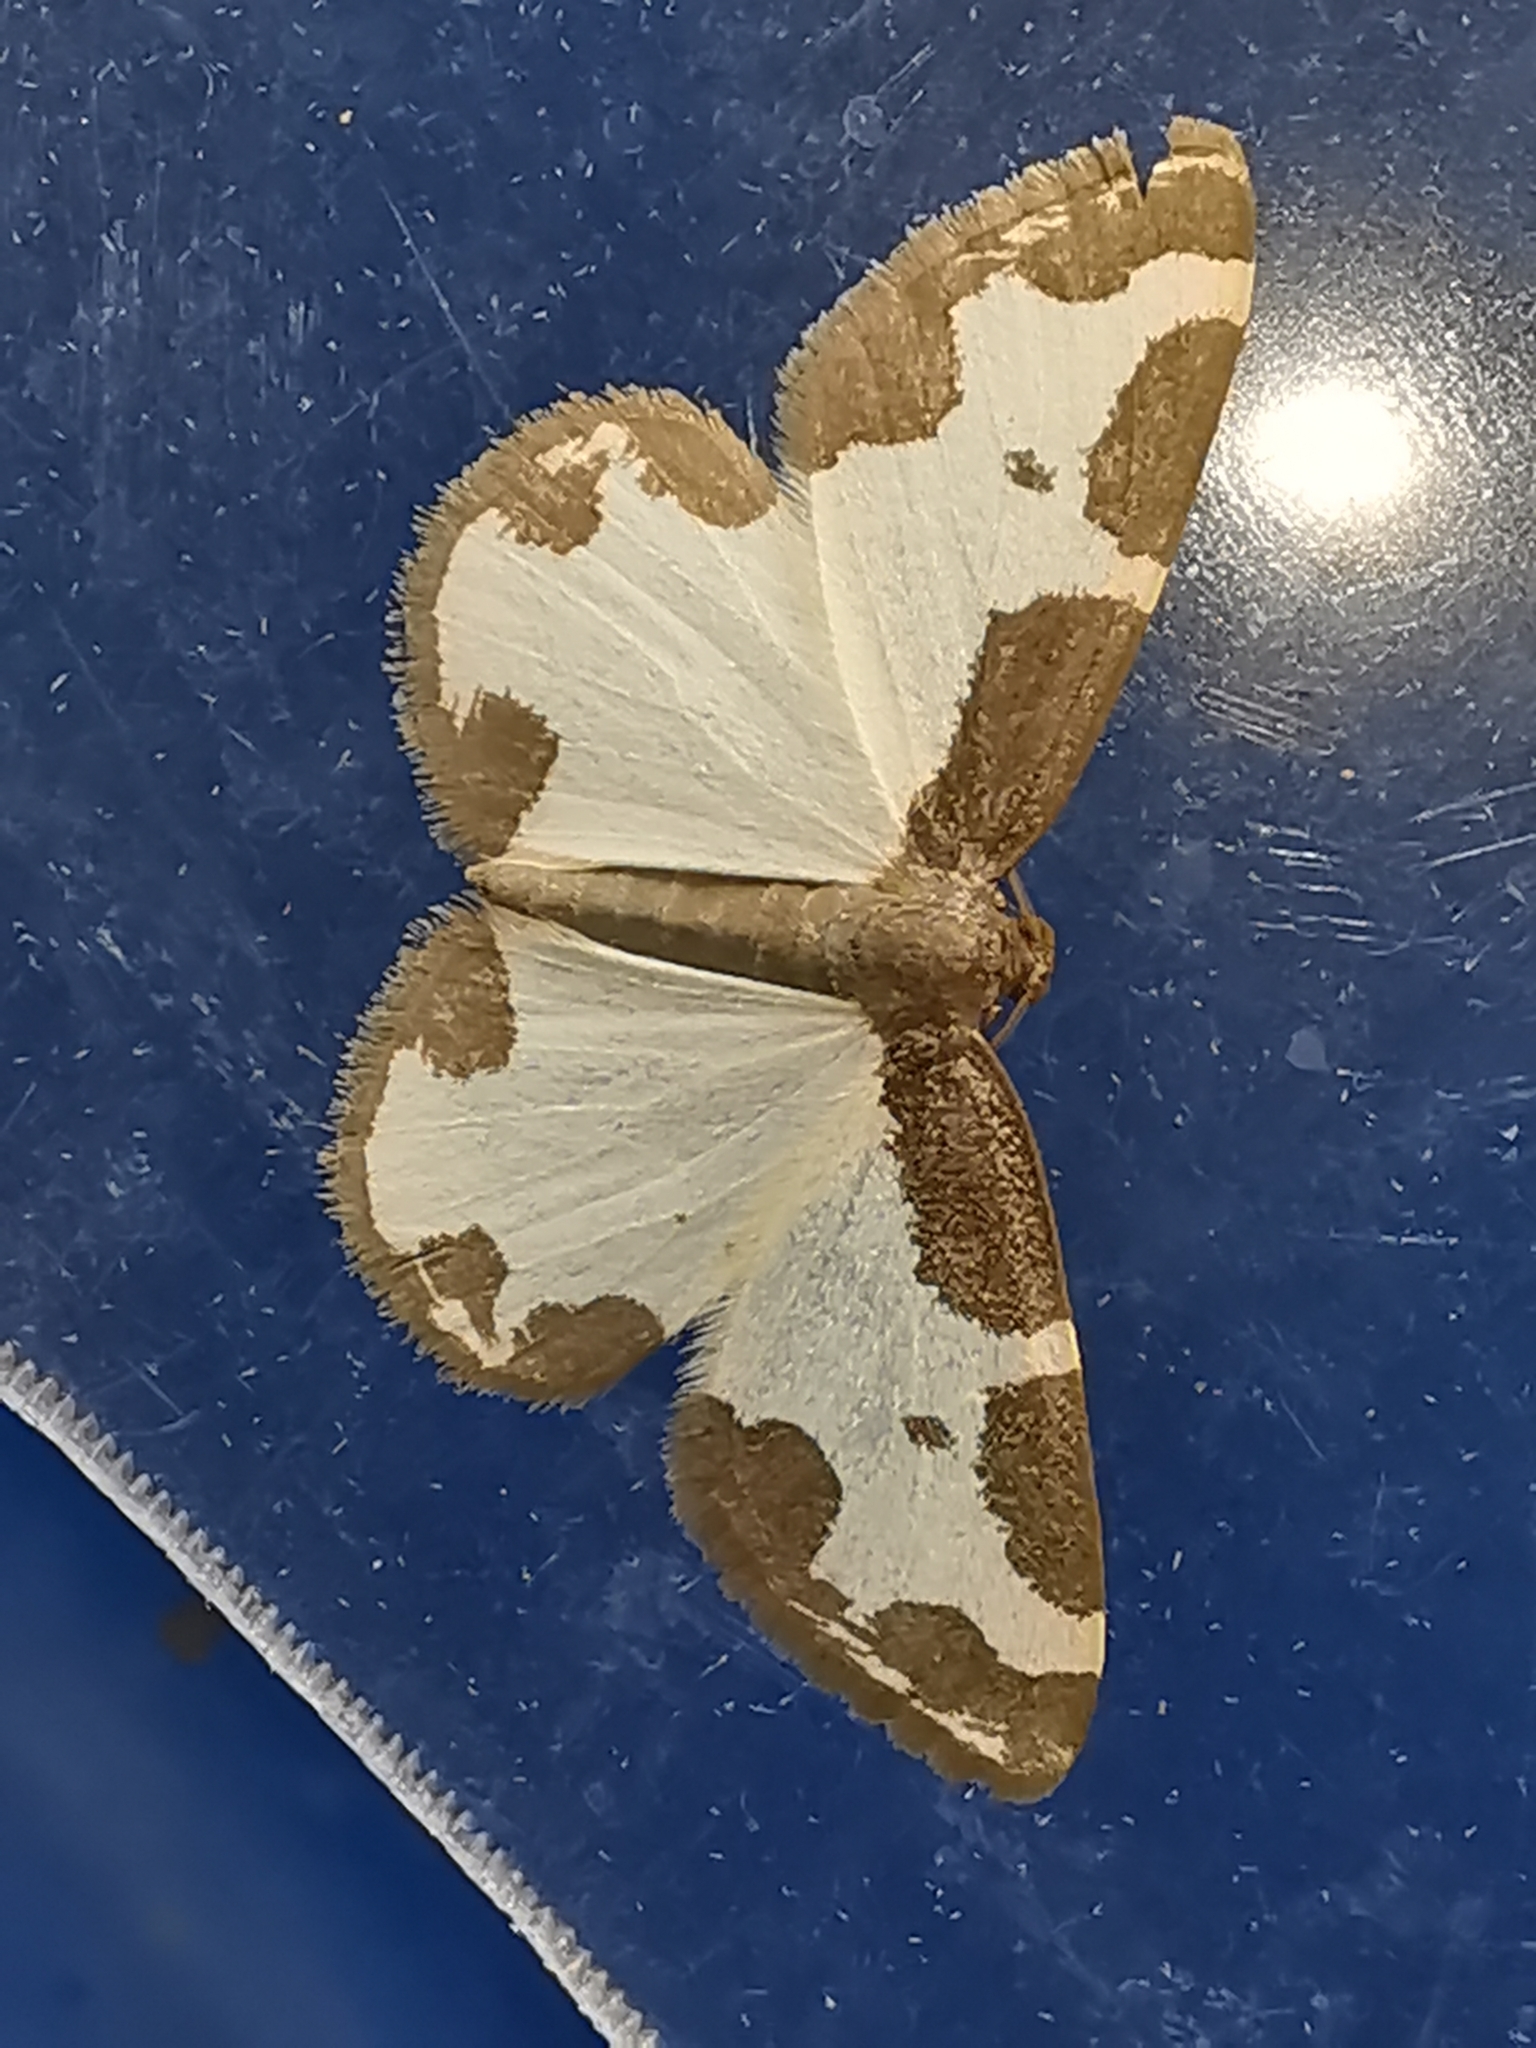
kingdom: Animalia
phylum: Arthropoda
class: Insecta
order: Lepidoptera
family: Geometridae
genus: Lomaspilis
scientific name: Lomaspilis marginata
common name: Clouded border
